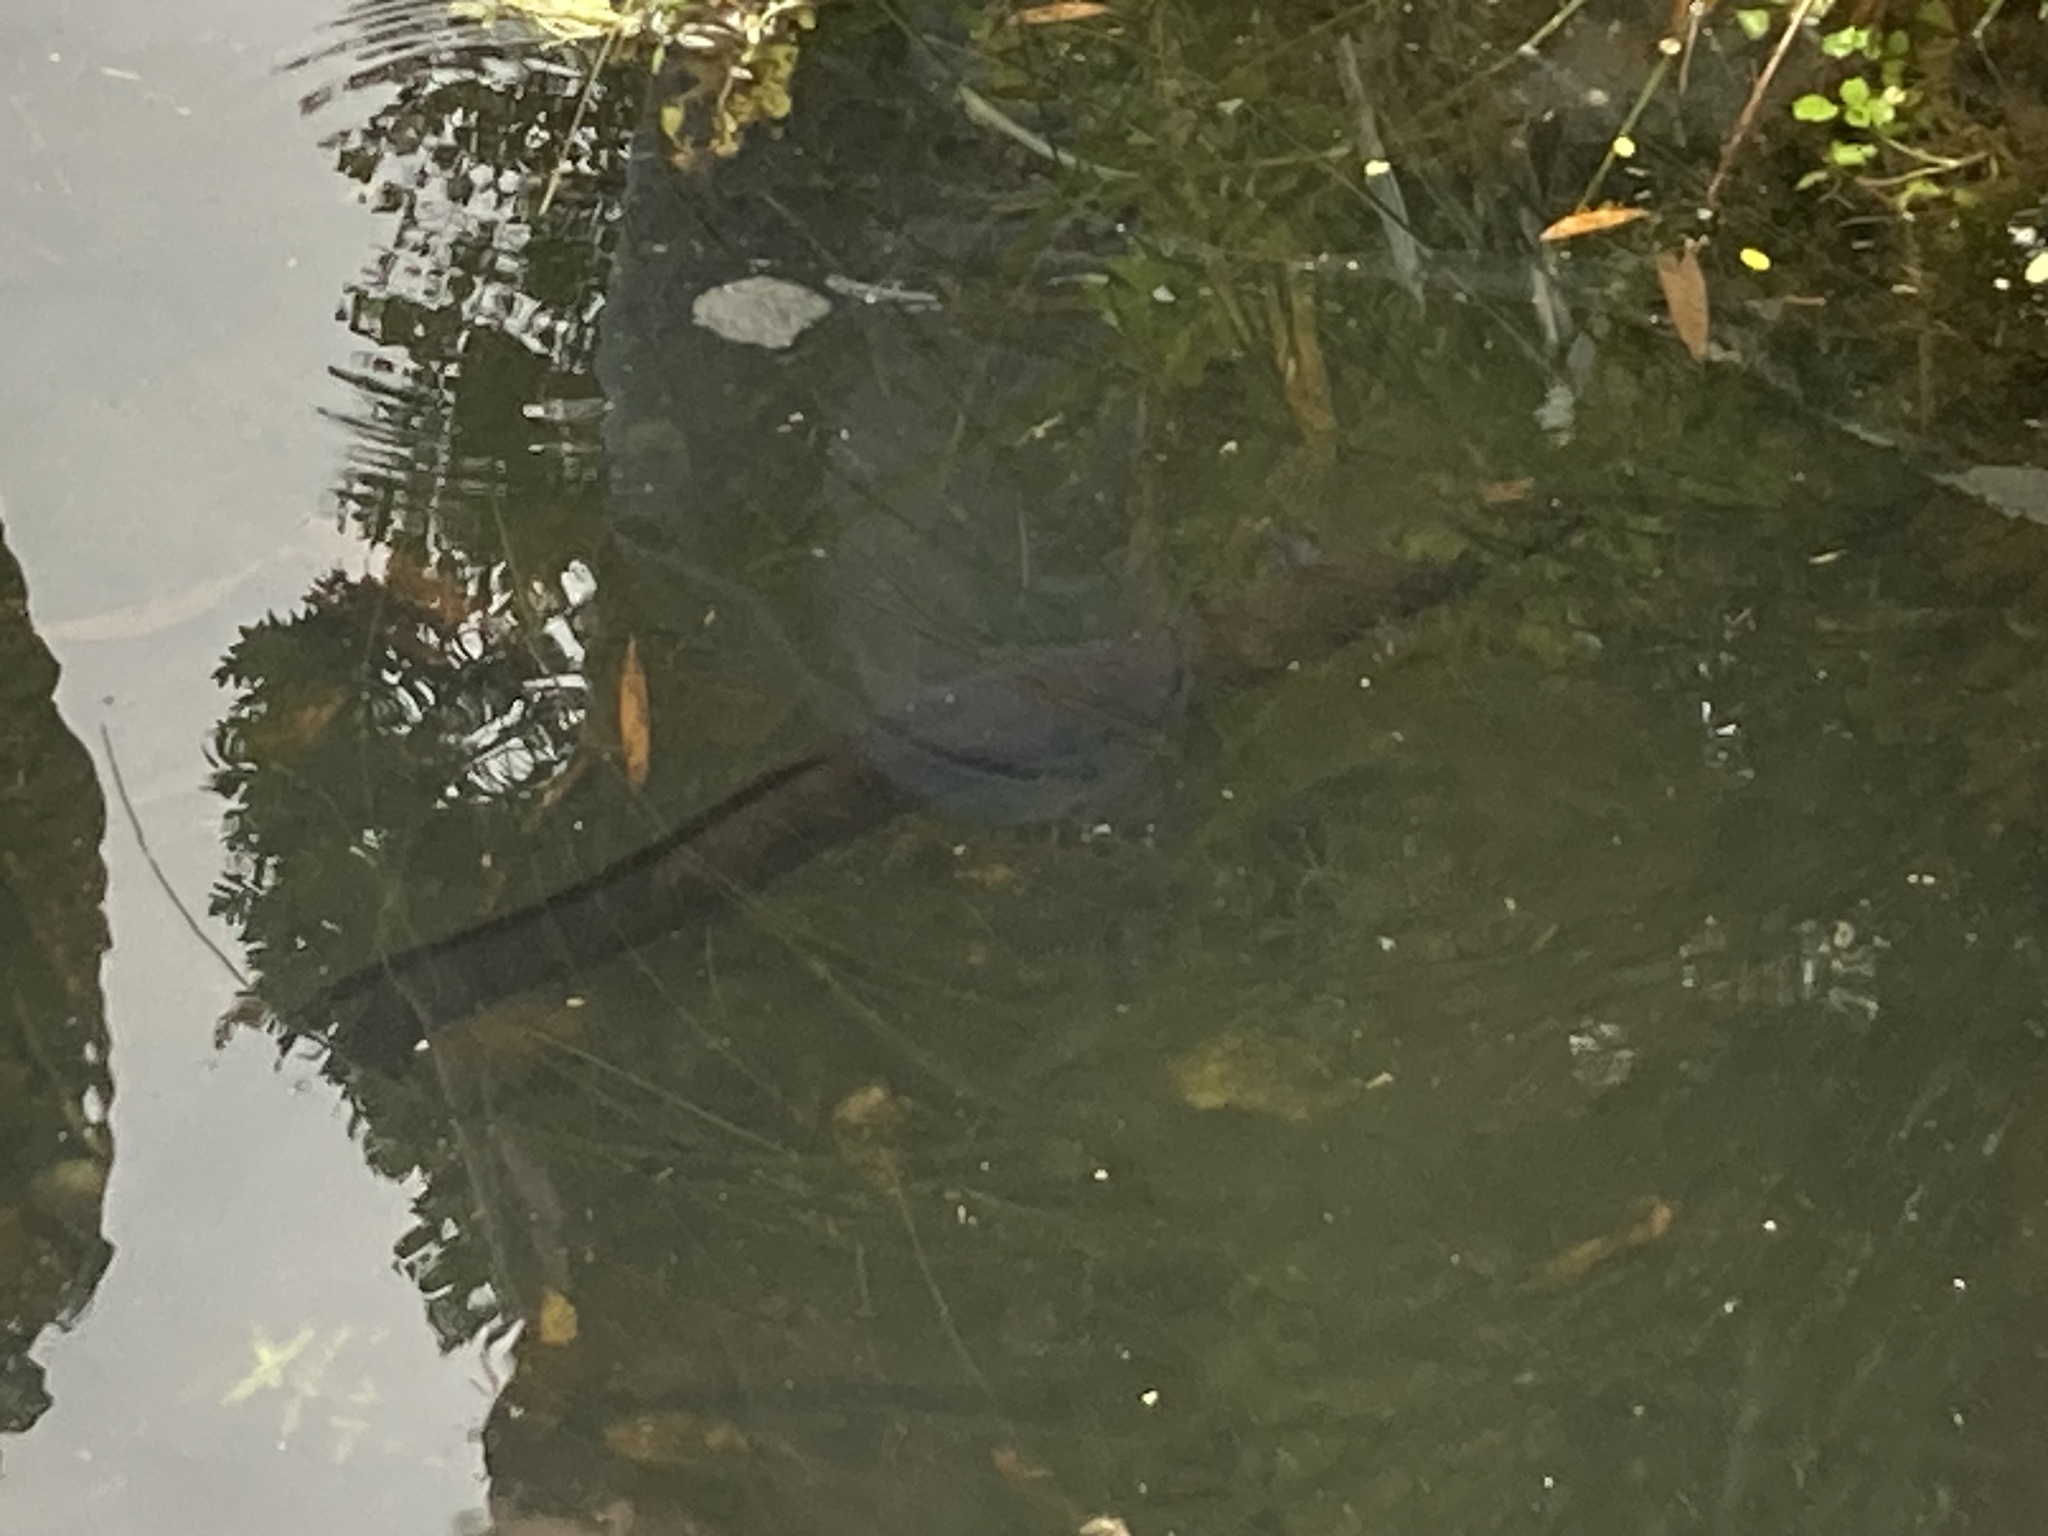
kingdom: Animalia
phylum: Chordata
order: Anguilliformes
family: Anguillidae
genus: Anguilla
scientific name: Anguilla australis
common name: Shortfin eel
